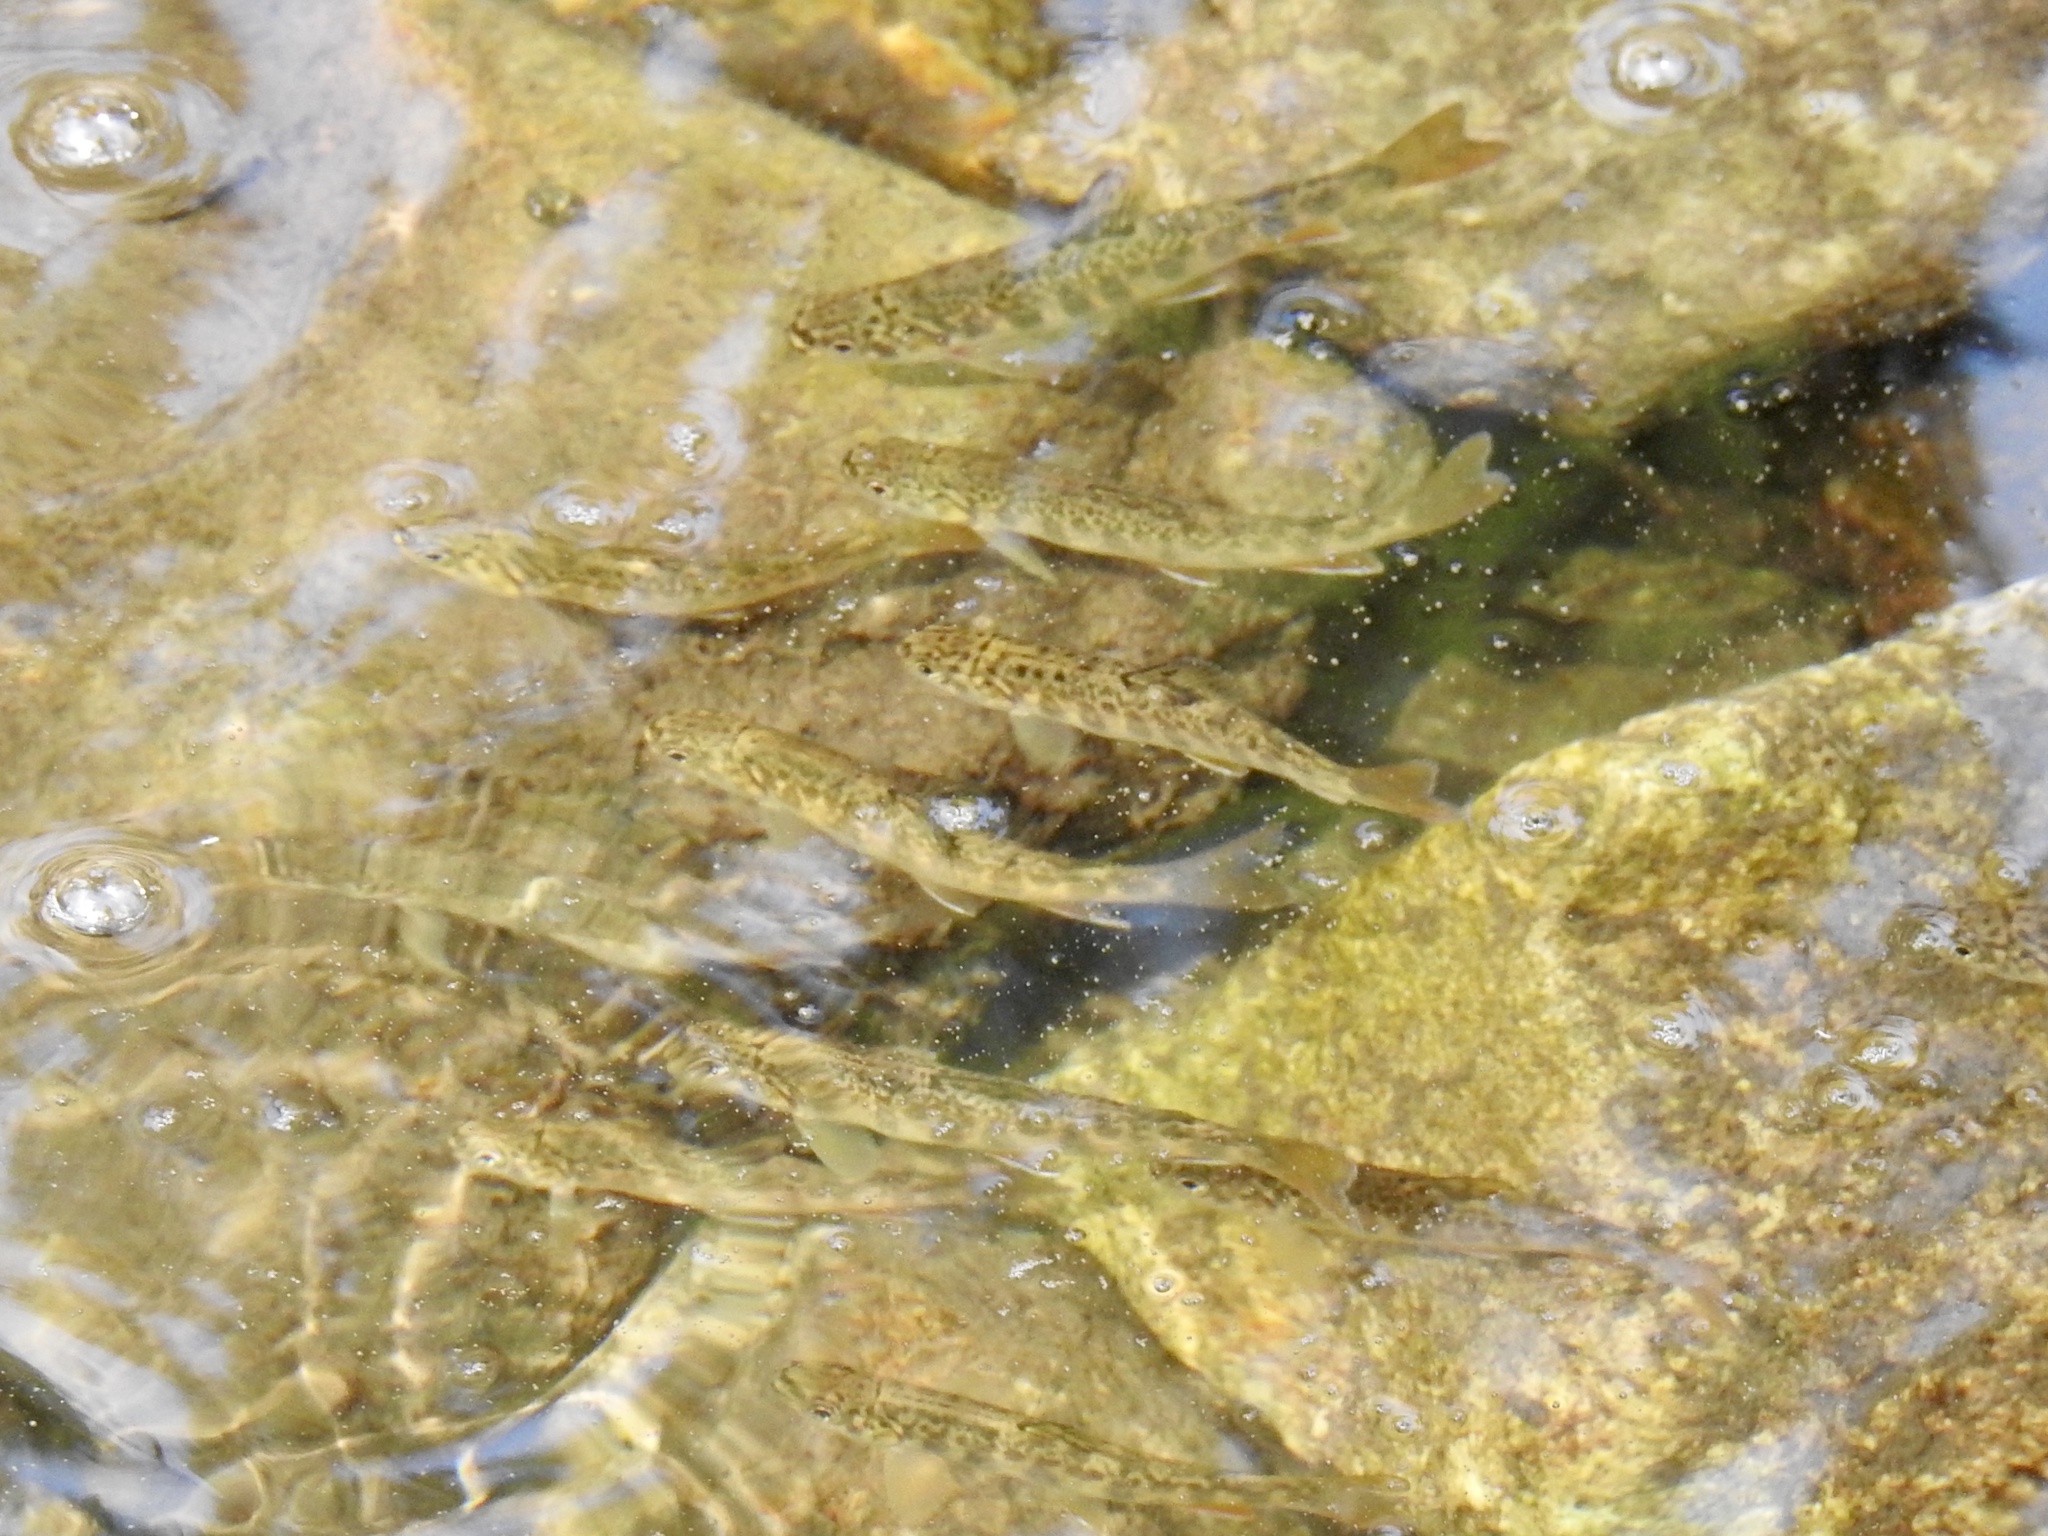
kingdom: Animalia
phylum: Chordata
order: Salmoniformes
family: Salmonidae
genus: Salvelinus
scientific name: Salvelinus fontinalis
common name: Brook trout
